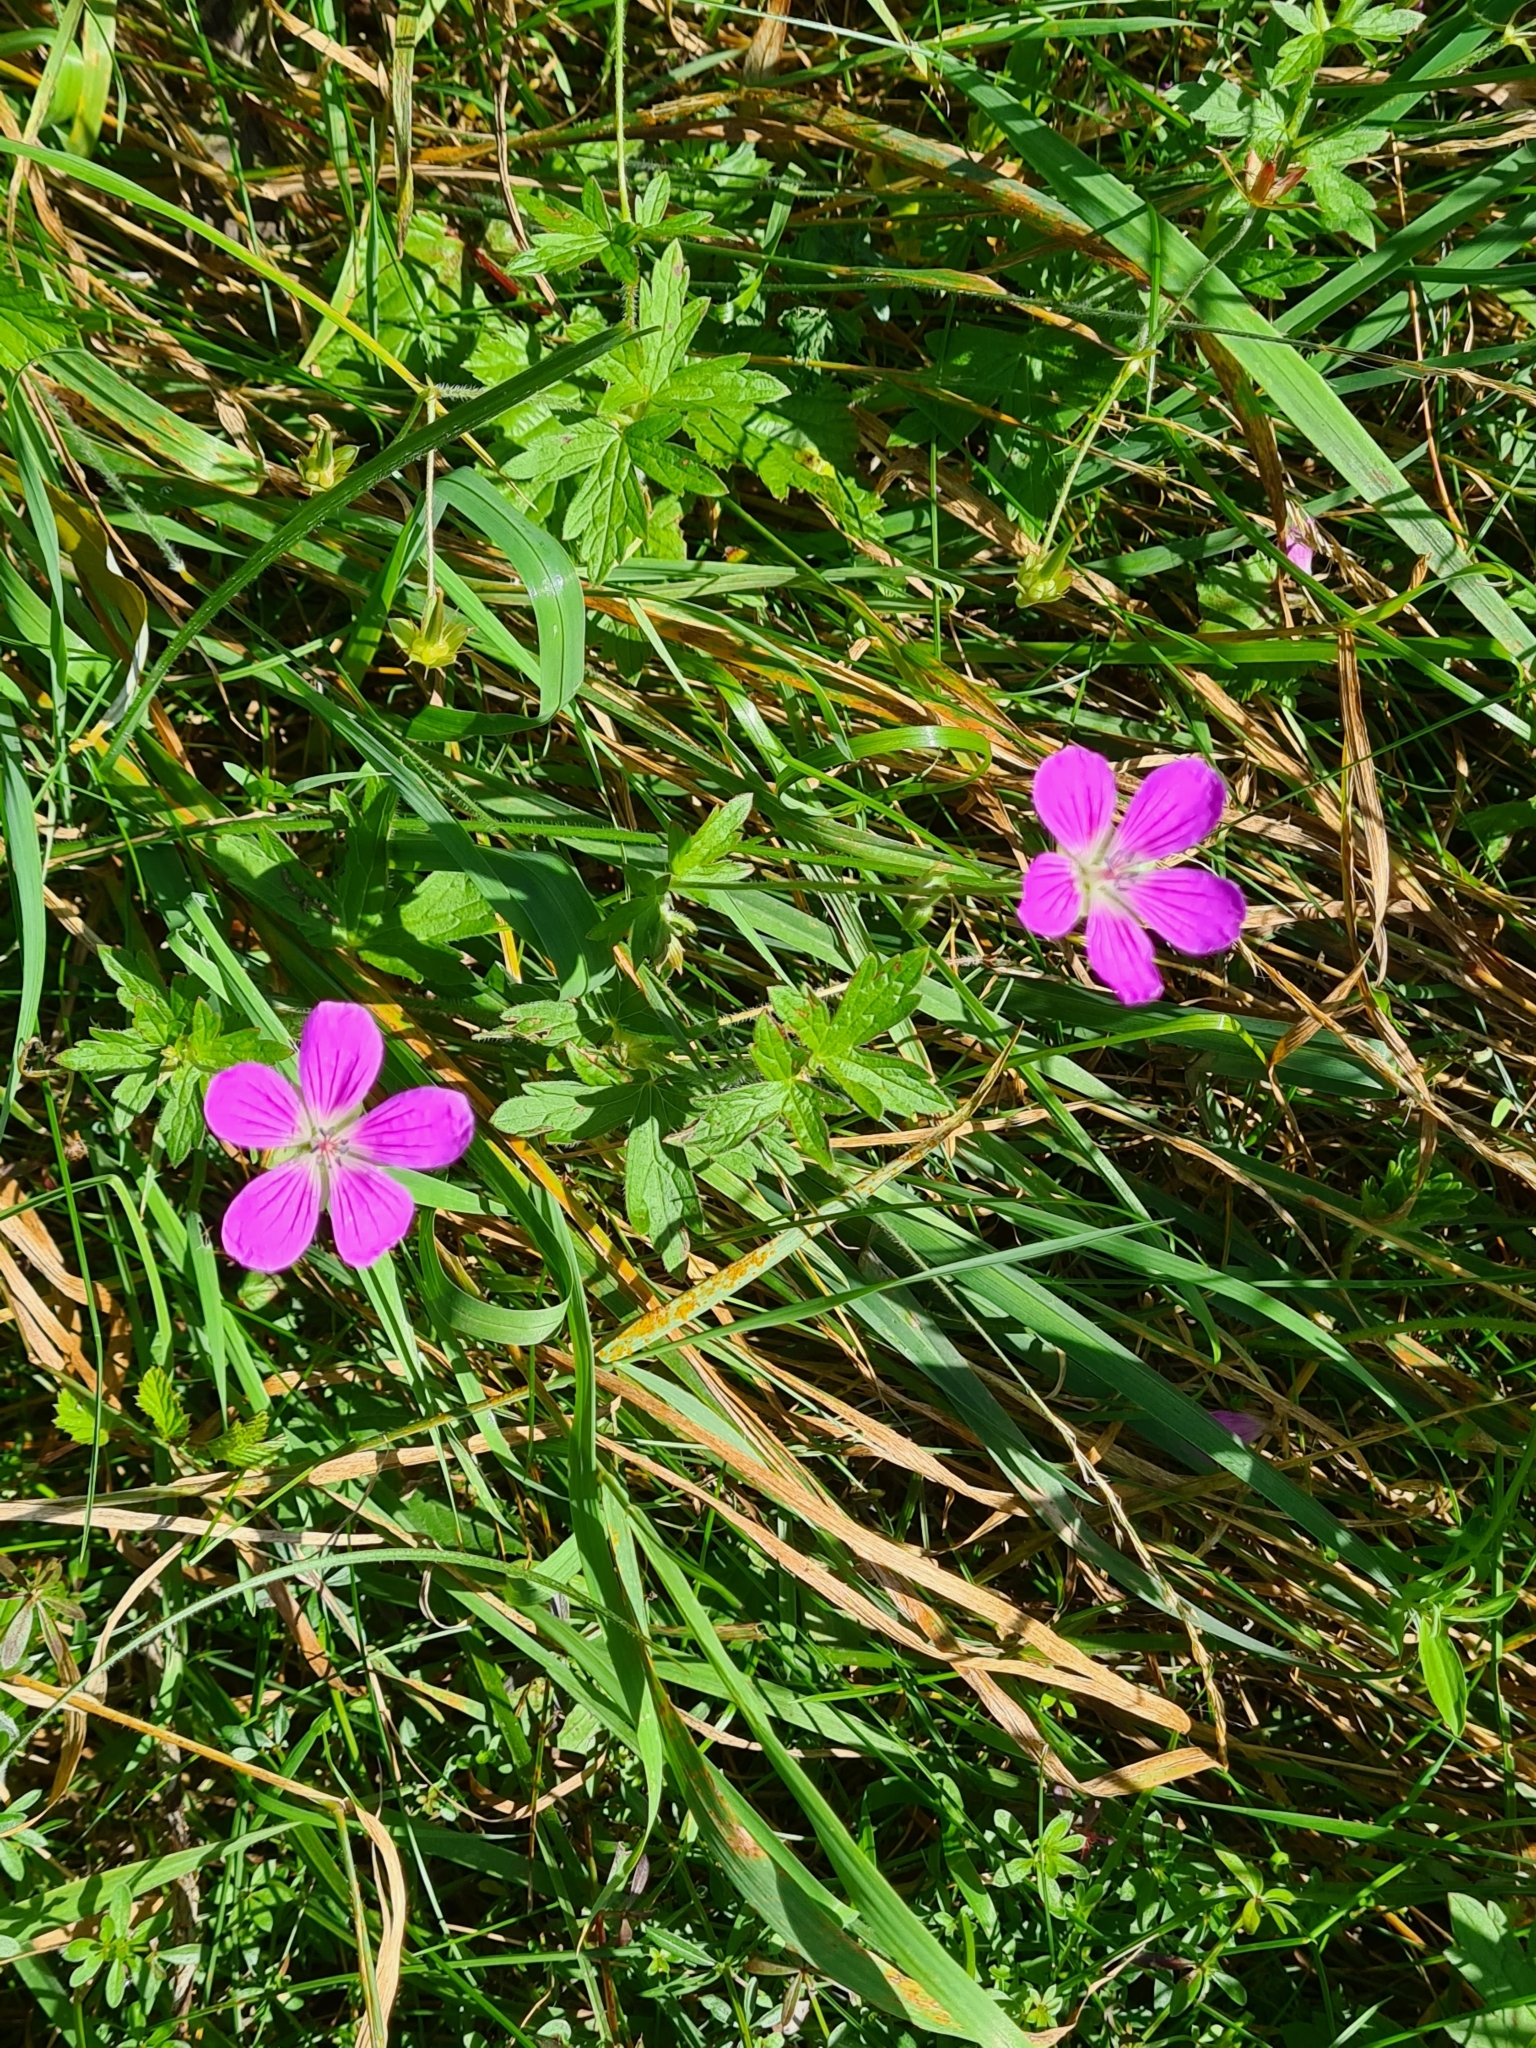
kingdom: Plantae
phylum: Tracheophyta
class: Magnoliopsida
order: Geraniales
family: Geraniaceae
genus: Geranium
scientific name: Geranium palustre
